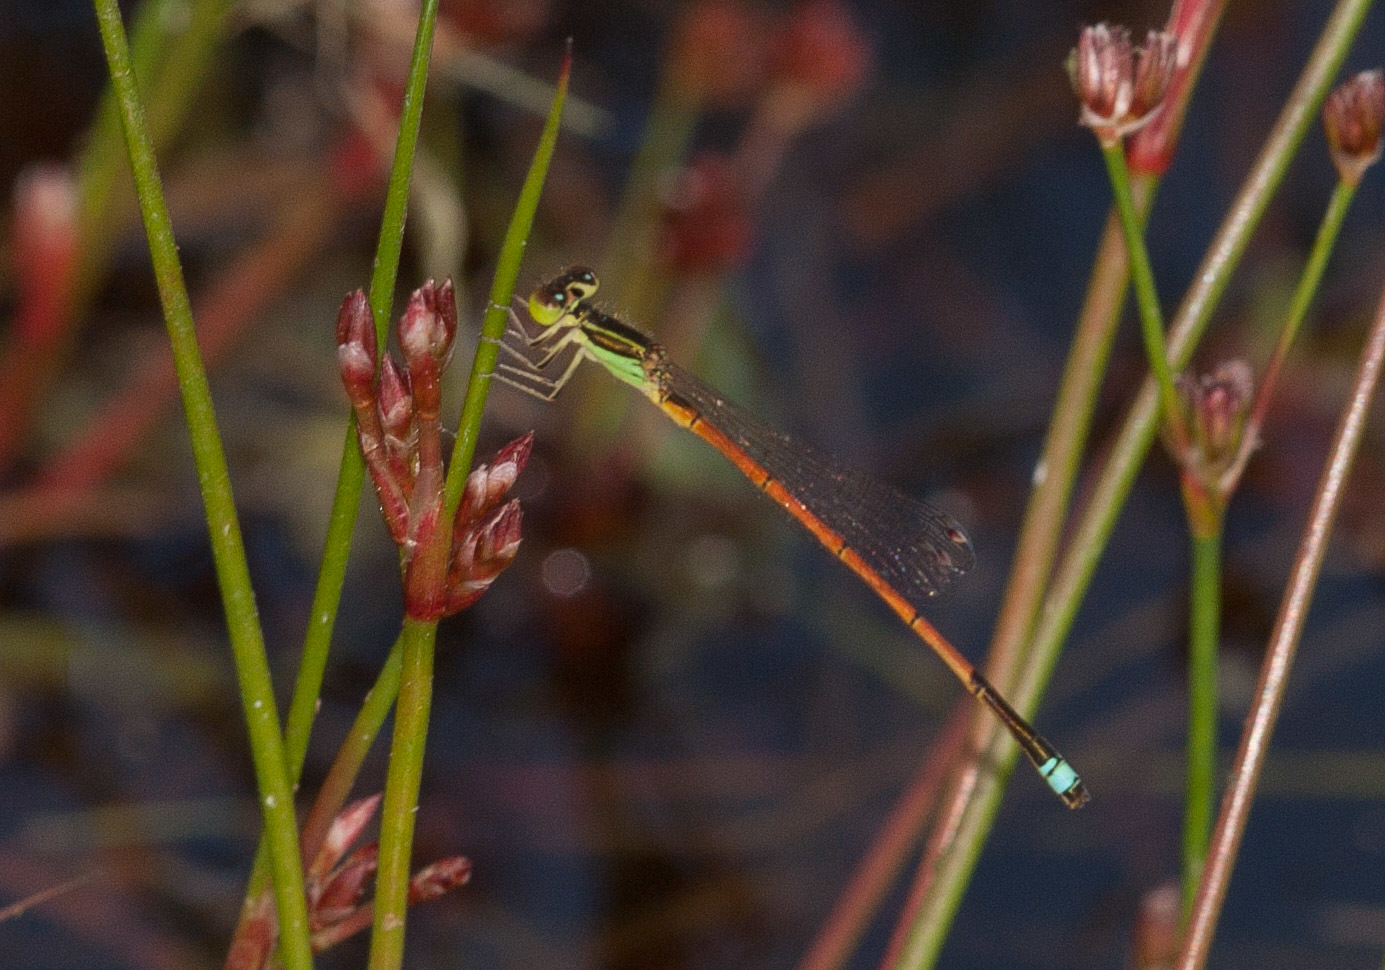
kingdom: Animalia
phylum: Arthropoda
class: Insecta
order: Odonata
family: Coenagrionidae
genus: Ischnura
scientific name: Ischnura aurora
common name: Gossamer damselfly
